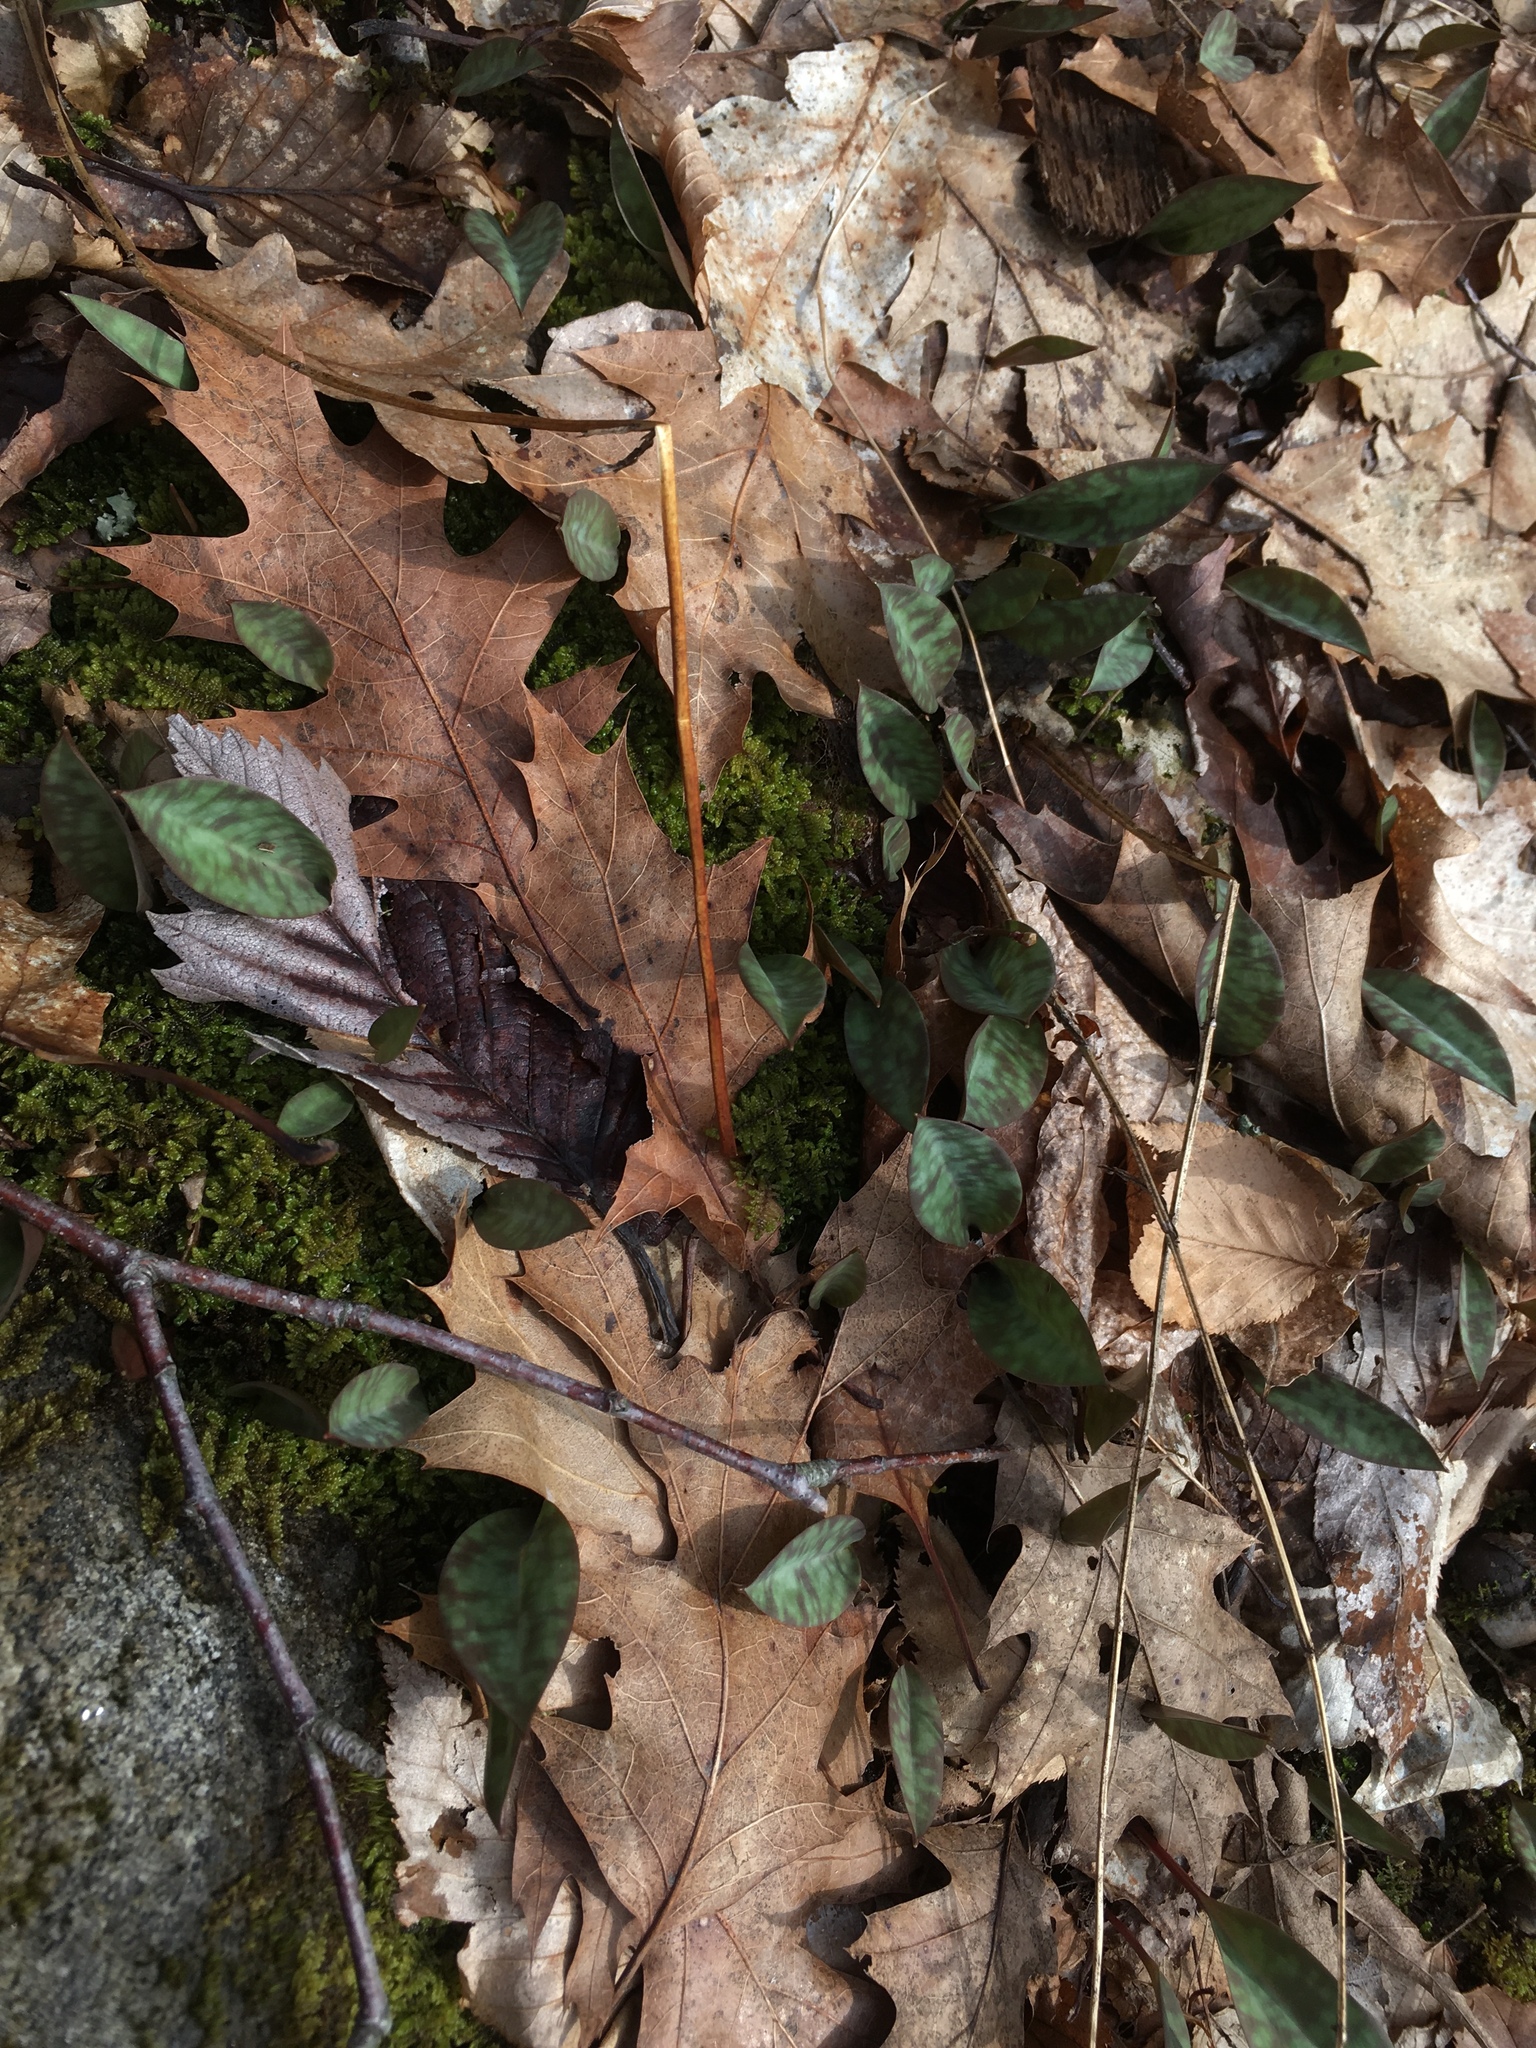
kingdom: Plantae
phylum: Tracheophyta
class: Liliopsida
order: Liliales
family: Liliaceae
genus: Erythronium
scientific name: Erythronium americanum
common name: Yellow adder's-tongue
